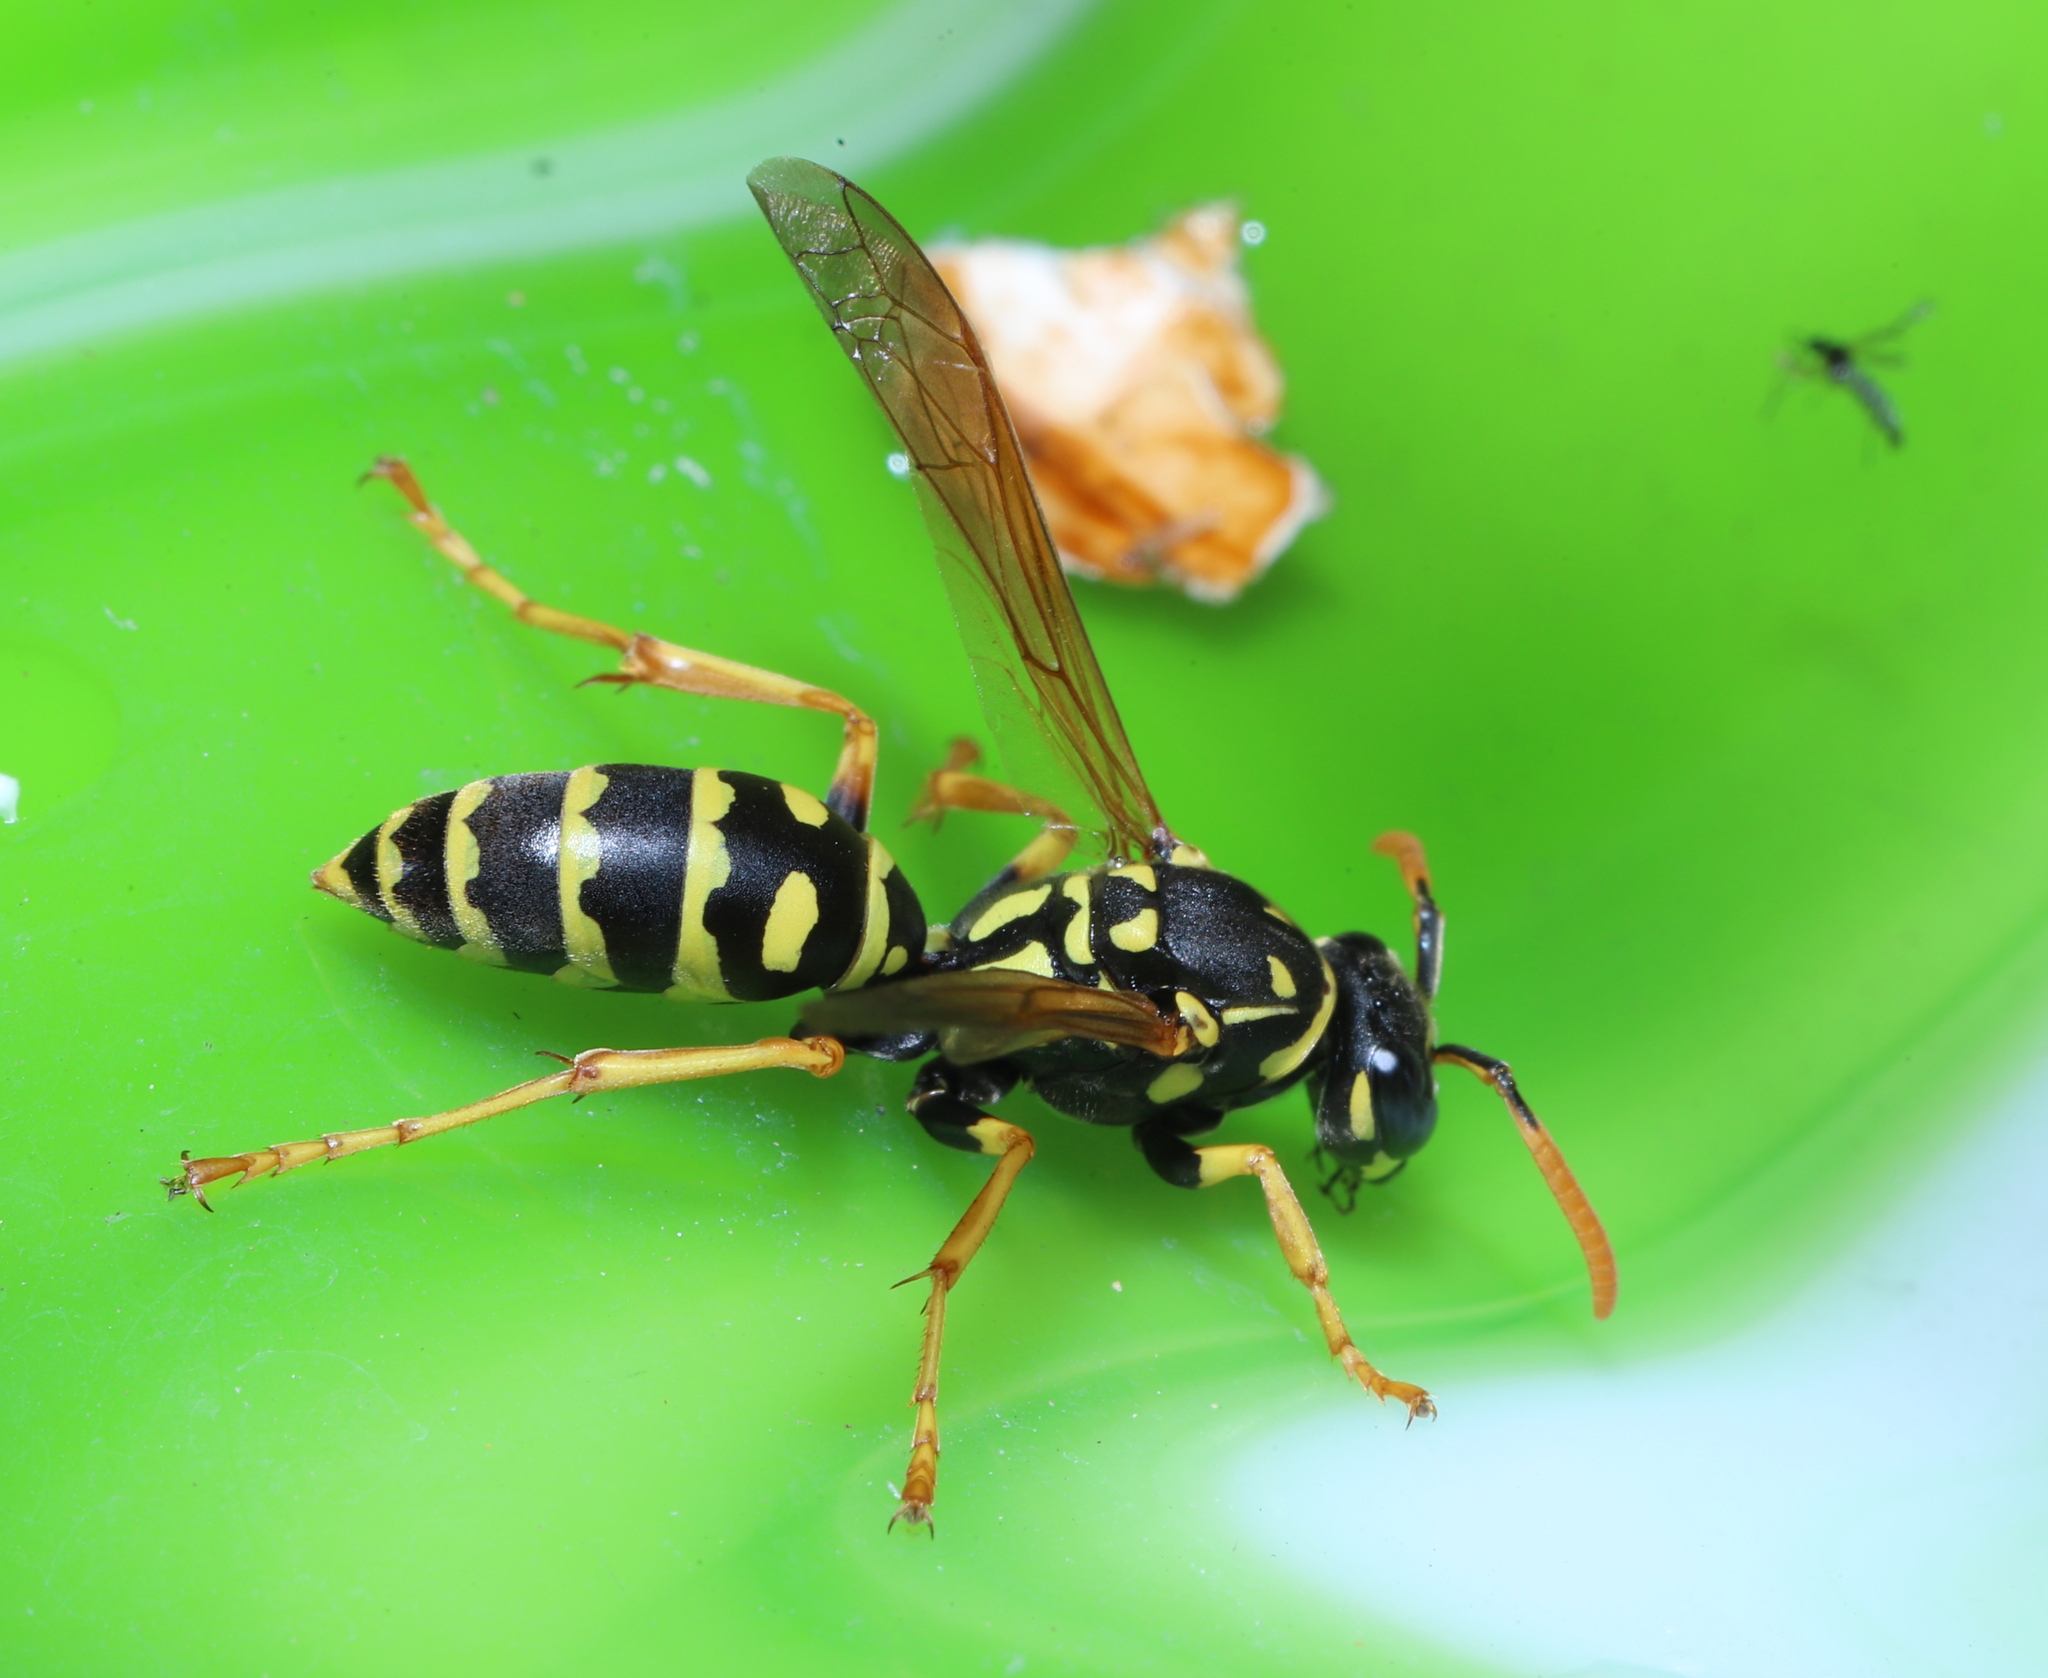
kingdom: Animalia
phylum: Arthropoda
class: Insecta
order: Hymenoptera
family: Eumenidae
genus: Polistes
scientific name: Polistes dominula
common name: Paper wasp
